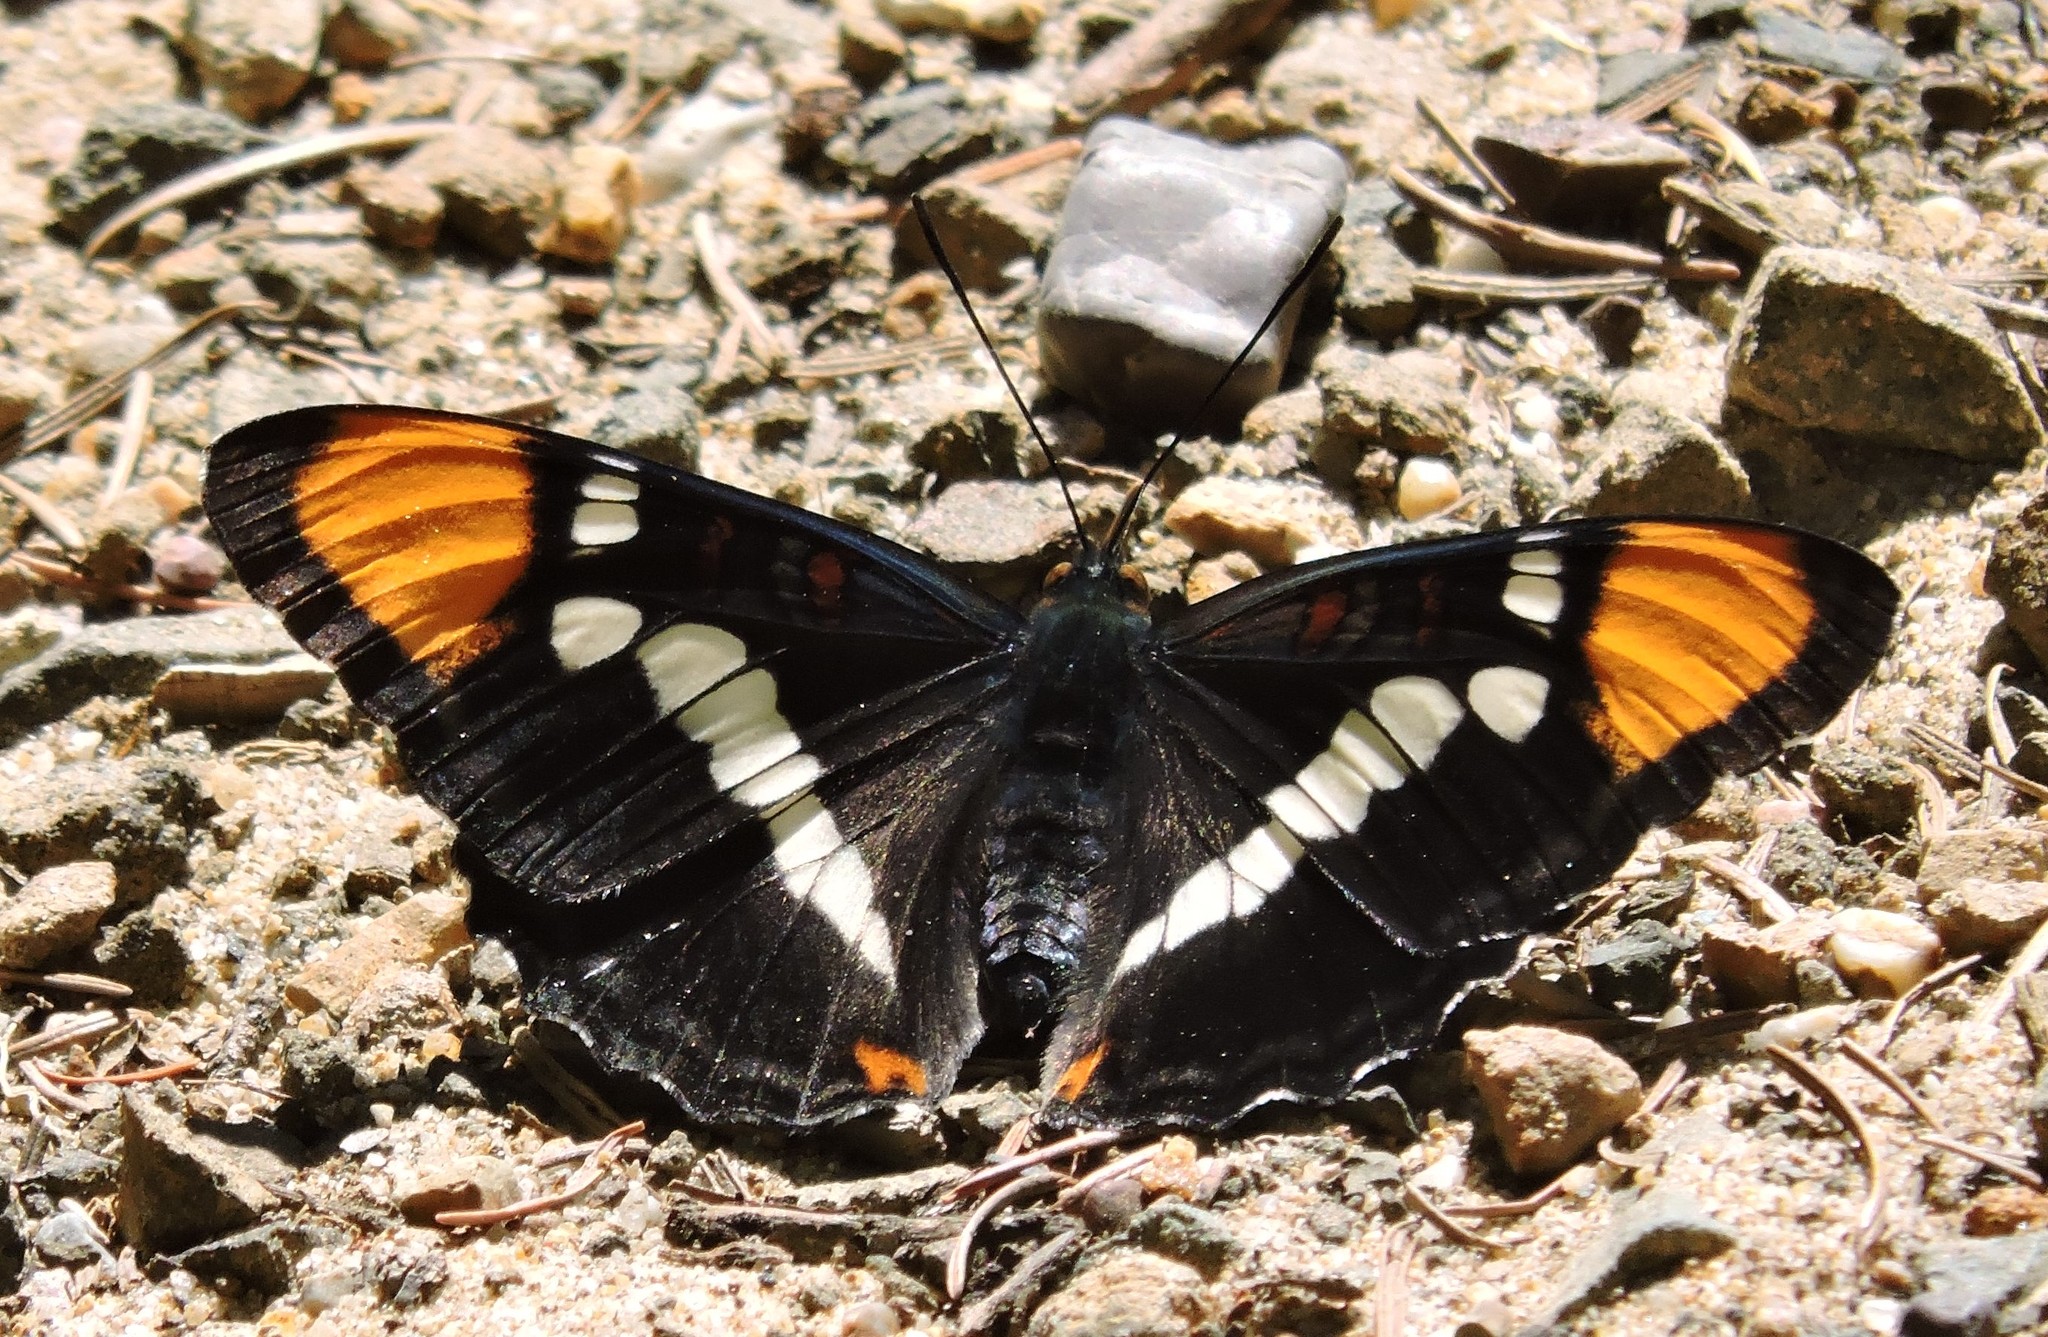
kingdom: Animalia
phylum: Arthropoda
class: Insecta
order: Lepidoptera
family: Nymphalidae
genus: Limenitis
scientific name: Limenitis bredowii
